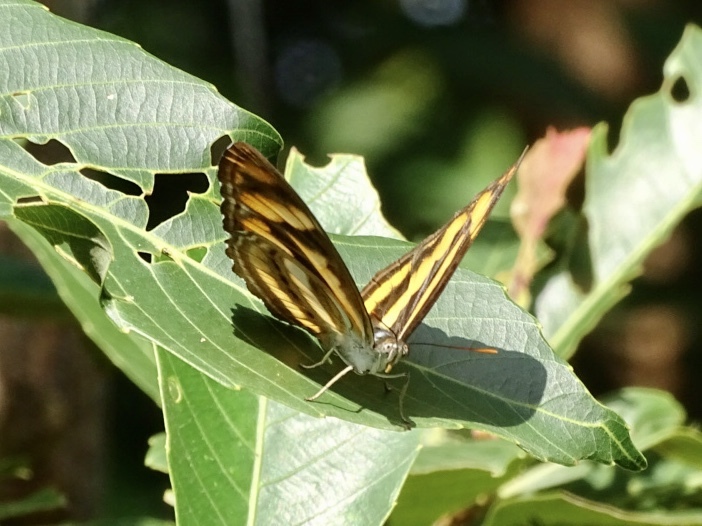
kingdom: Animalia
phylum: Arthropoda
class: Insecta
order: Lepidoptera
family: Nymphalidae
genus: Parathyma
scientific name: Parathyma nefte
